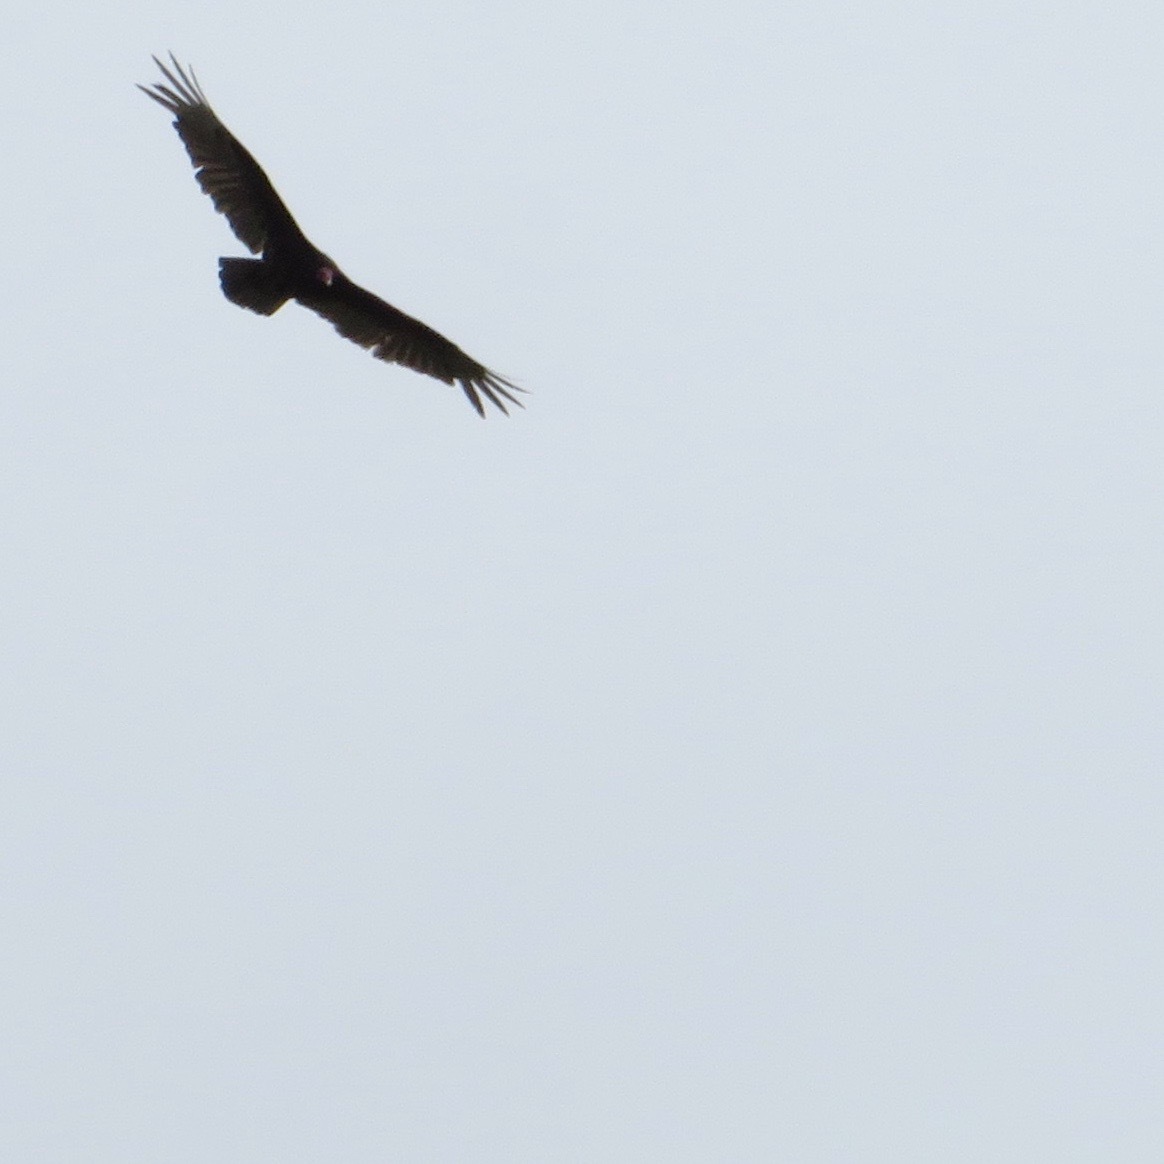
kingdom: Animalia
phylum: Chordata
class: Aves
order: Accipitriformes
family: Cathartidae
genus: Cathartes
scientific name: Cathartes aura
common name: Turkey vulture
